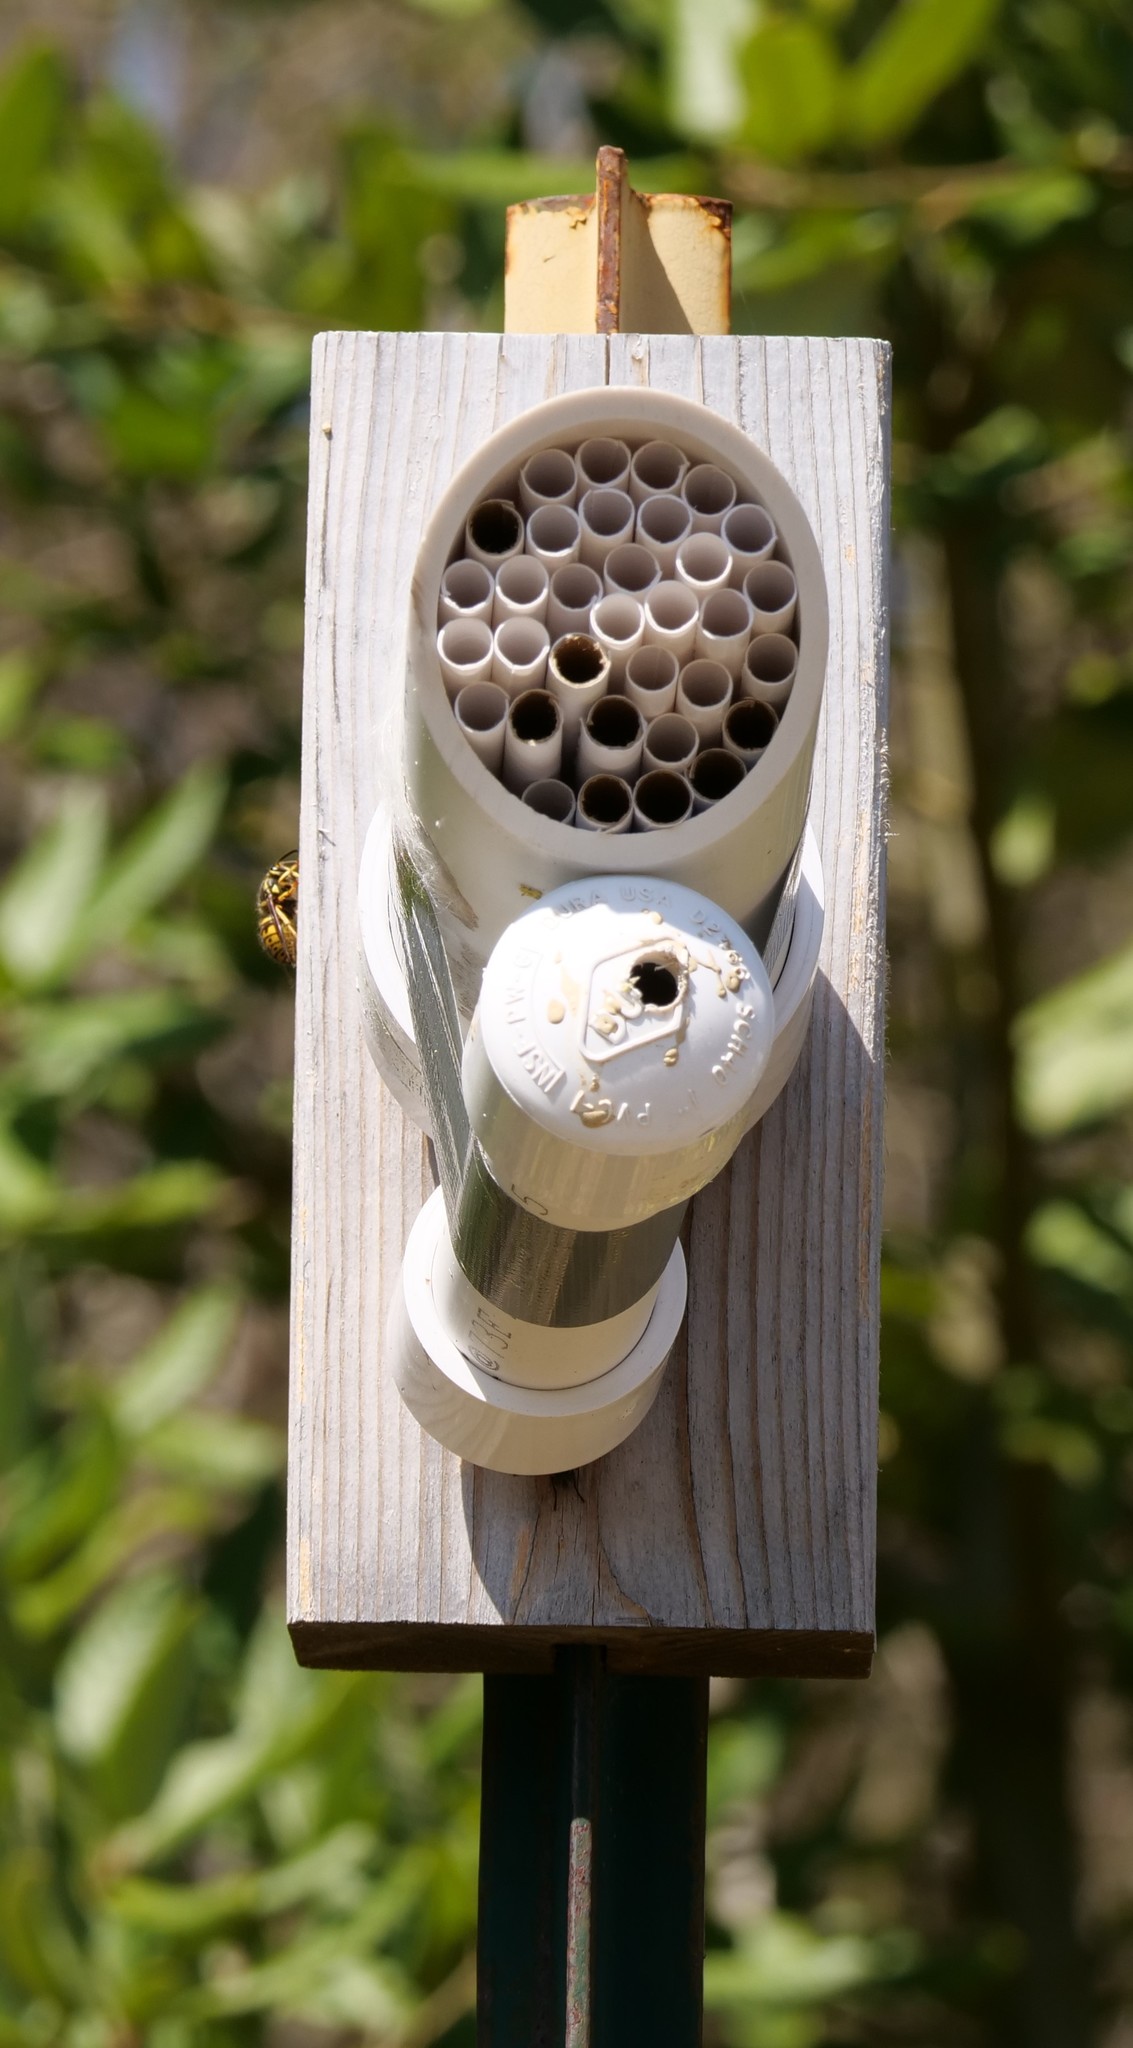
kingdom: Animalia
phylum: Arthropoda
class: Insecta
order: Hymenoptera
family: Vespidae
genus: Dolichovespula
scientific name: Dolichovespula arenaria
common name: Aerial yellowjacket
